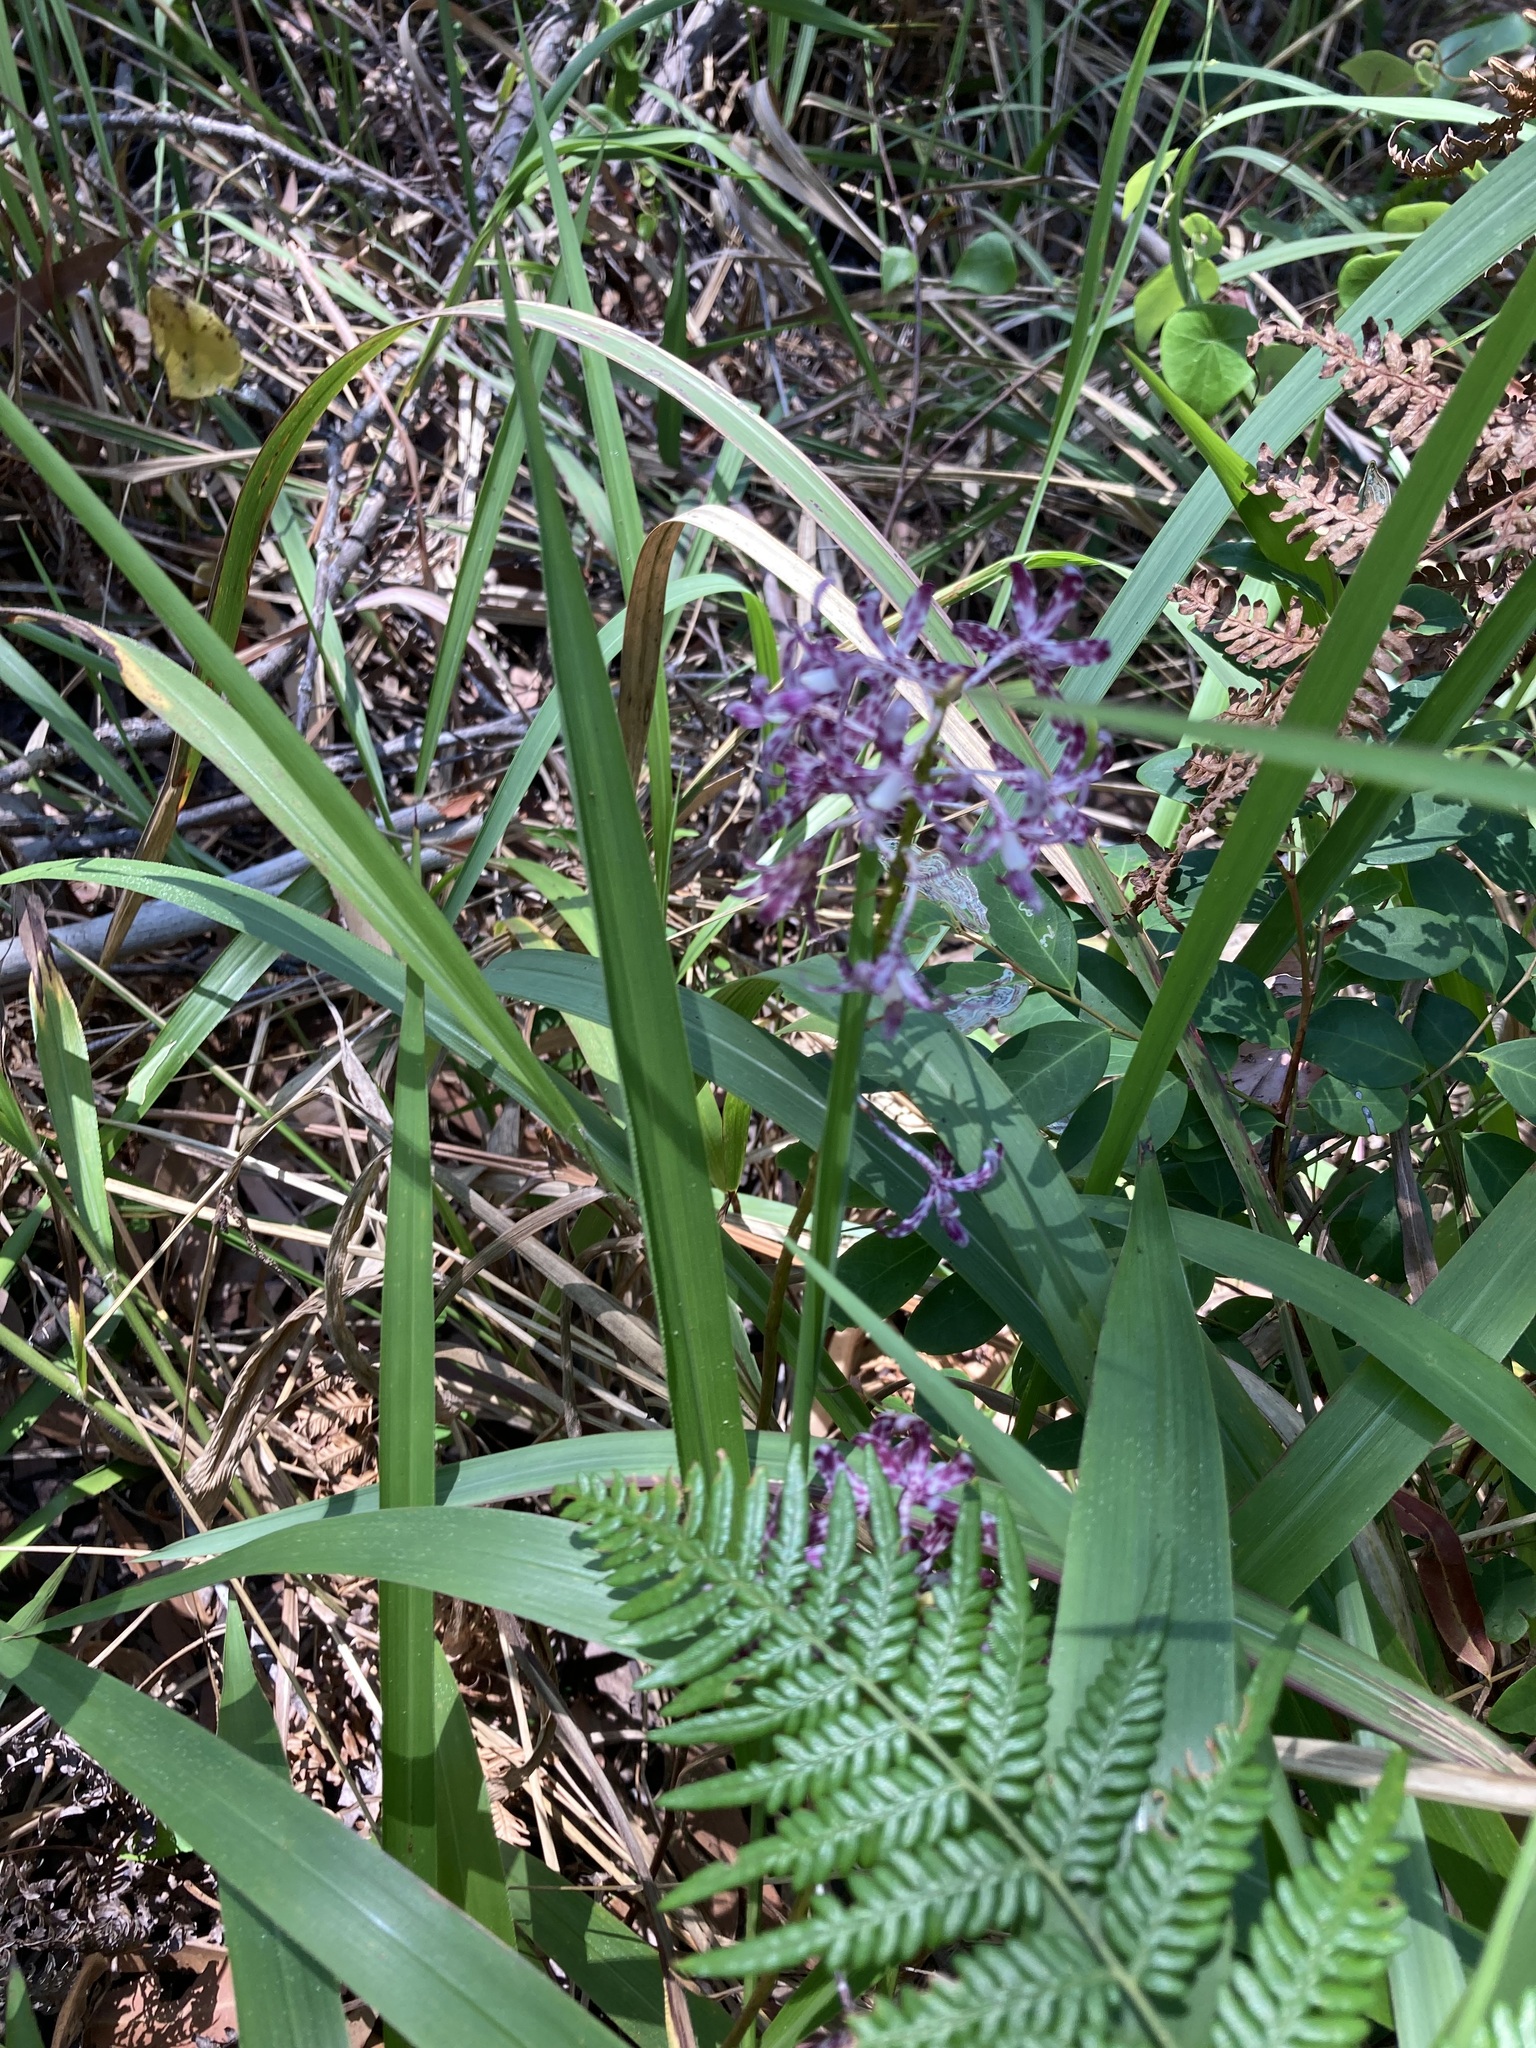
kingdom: Plantae
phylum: Tracheophyta
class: Liliopsida
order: Asparagales
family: Orchidaceae
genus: Dipodium
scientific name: Dipodium variegatum
